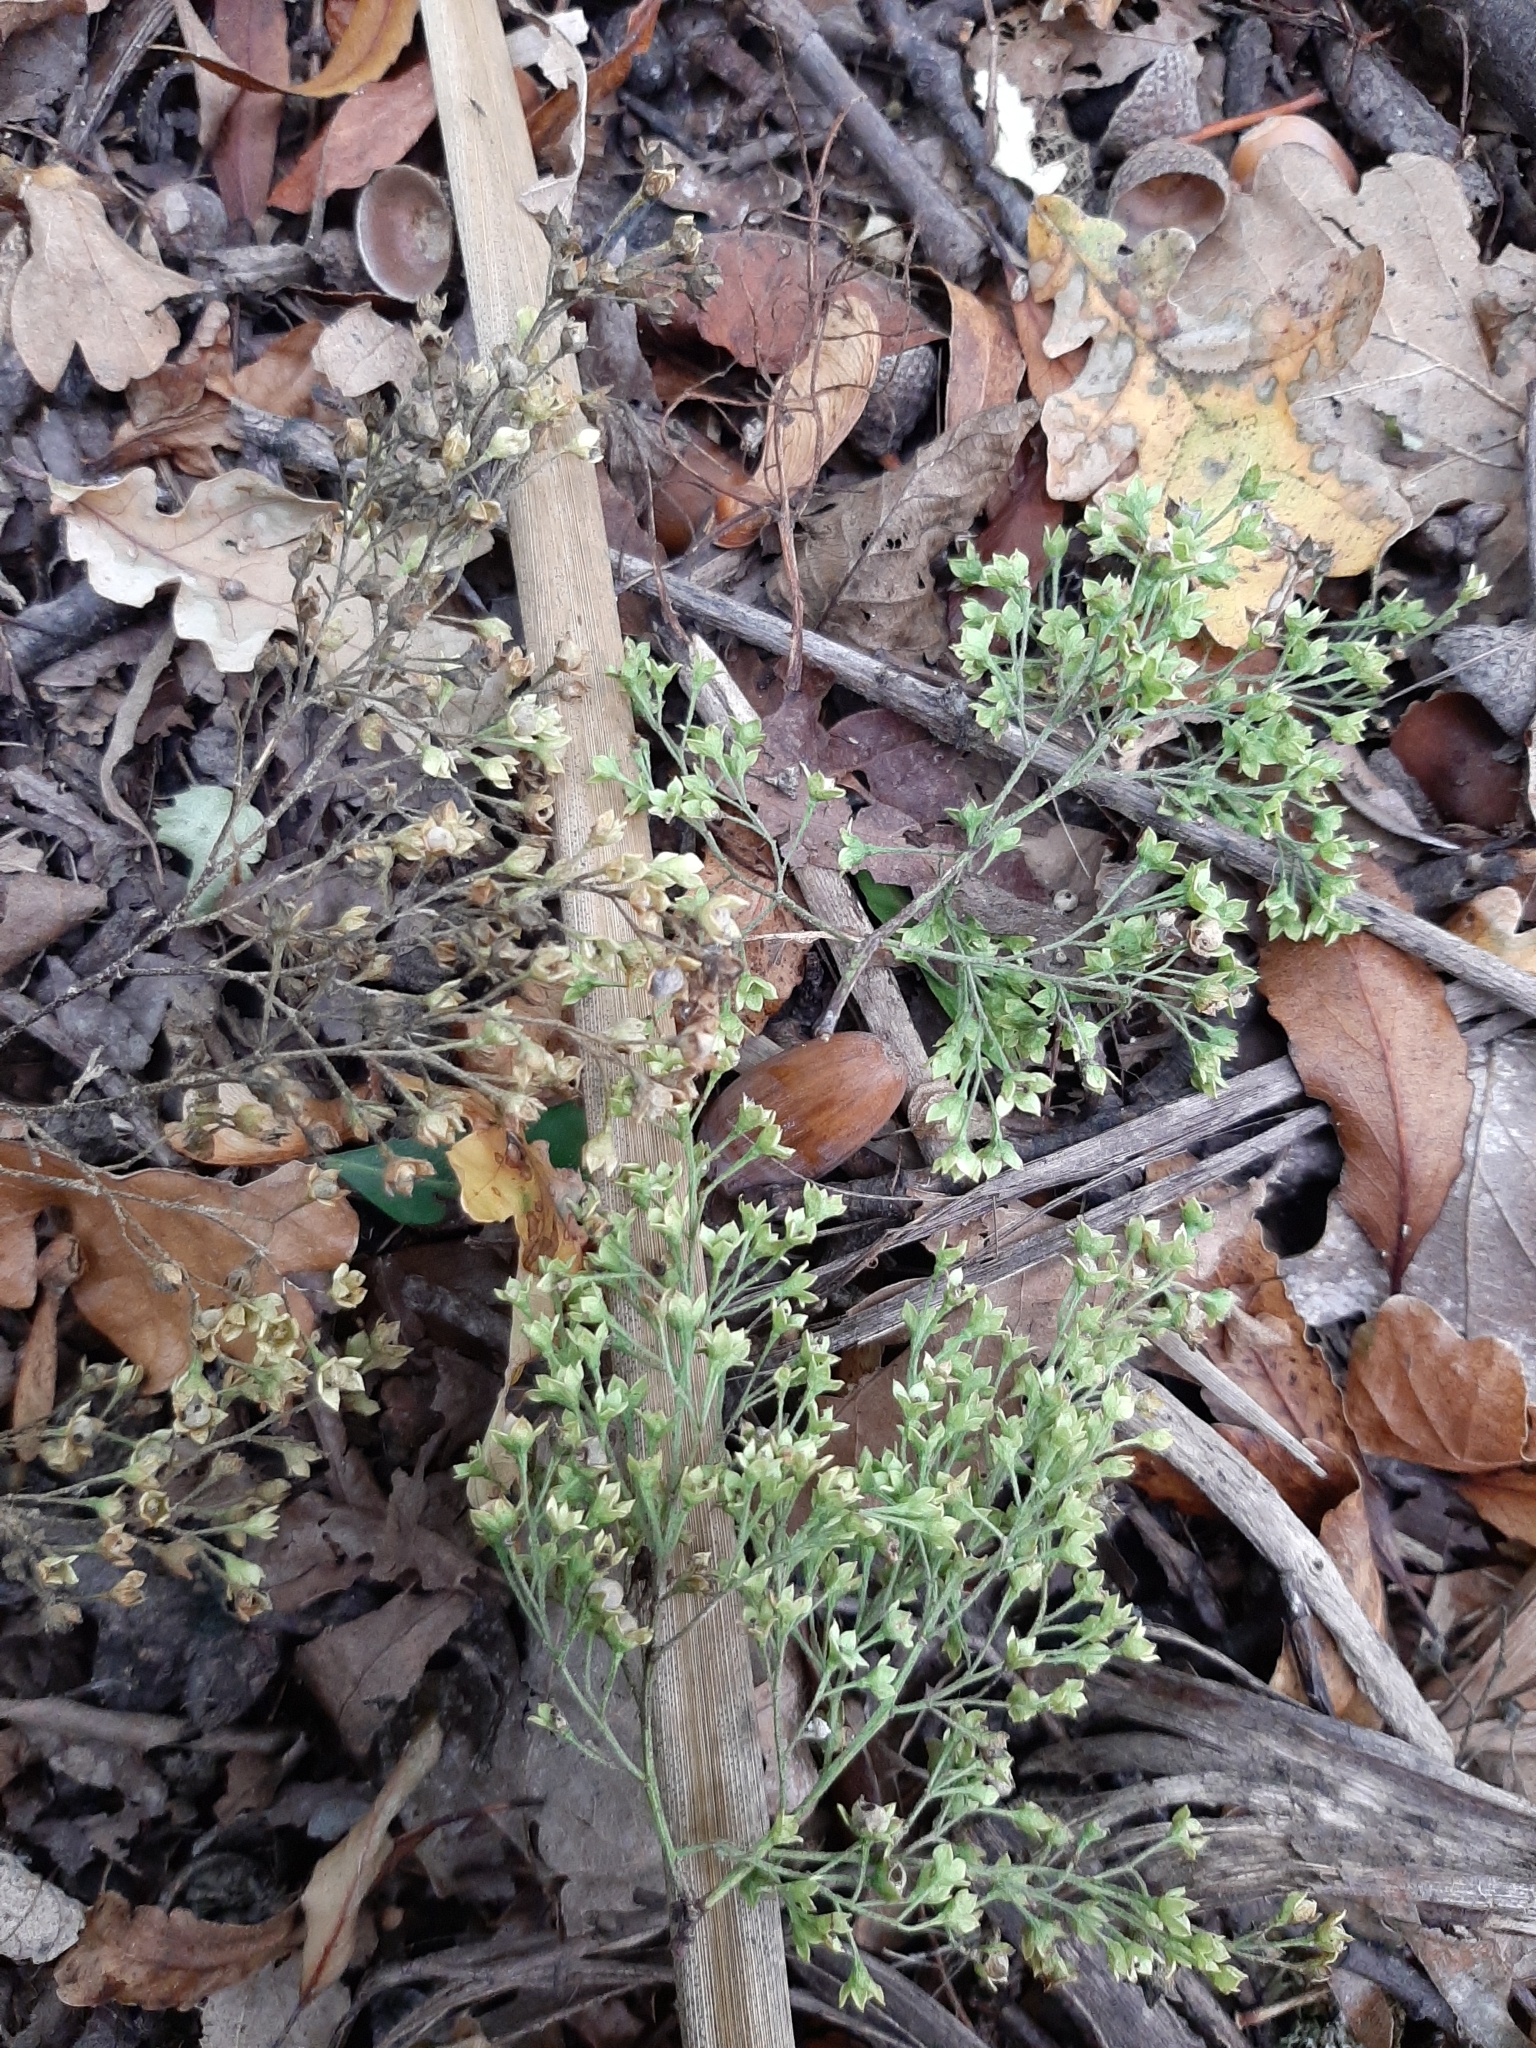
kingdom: Plantae
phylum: Tracheophyta
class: Magnoliopsida
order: Malvales
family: Malvaceae
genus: Plagianthus
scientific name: Plagianthus regius
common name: Manatu
